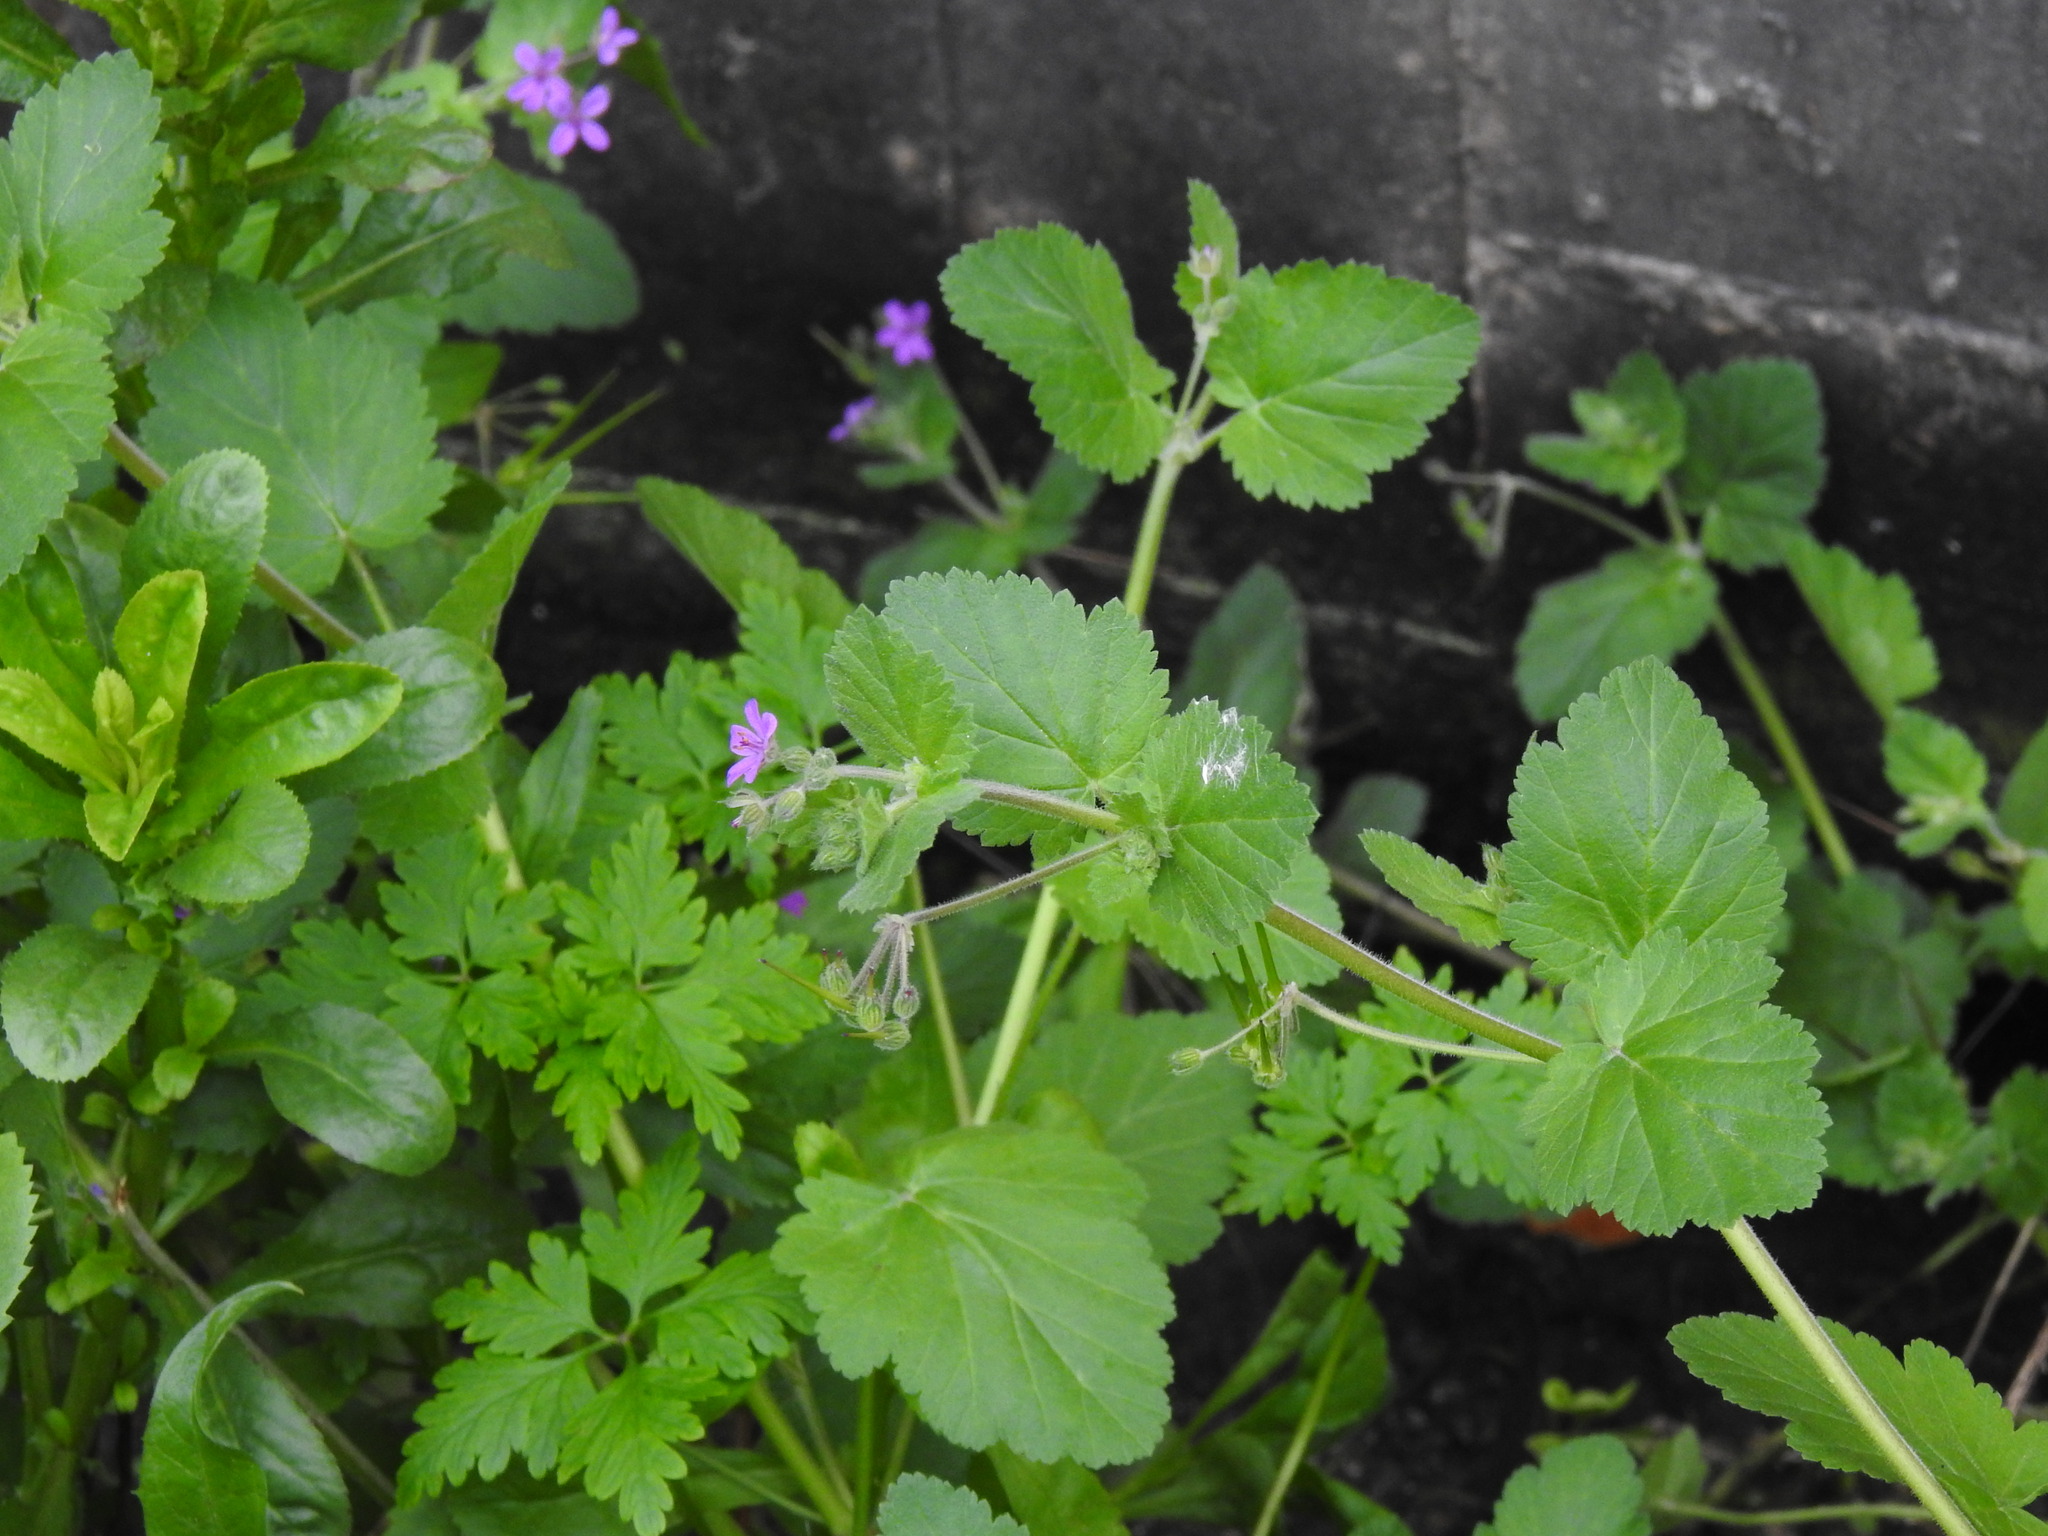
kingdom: Plantae
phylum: Tracheophyta
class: Magnoliopsida
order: Geraniales
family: Geraniaceae
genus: Erodium
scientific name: Erodium malacoides
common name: Soft stork's-bill
